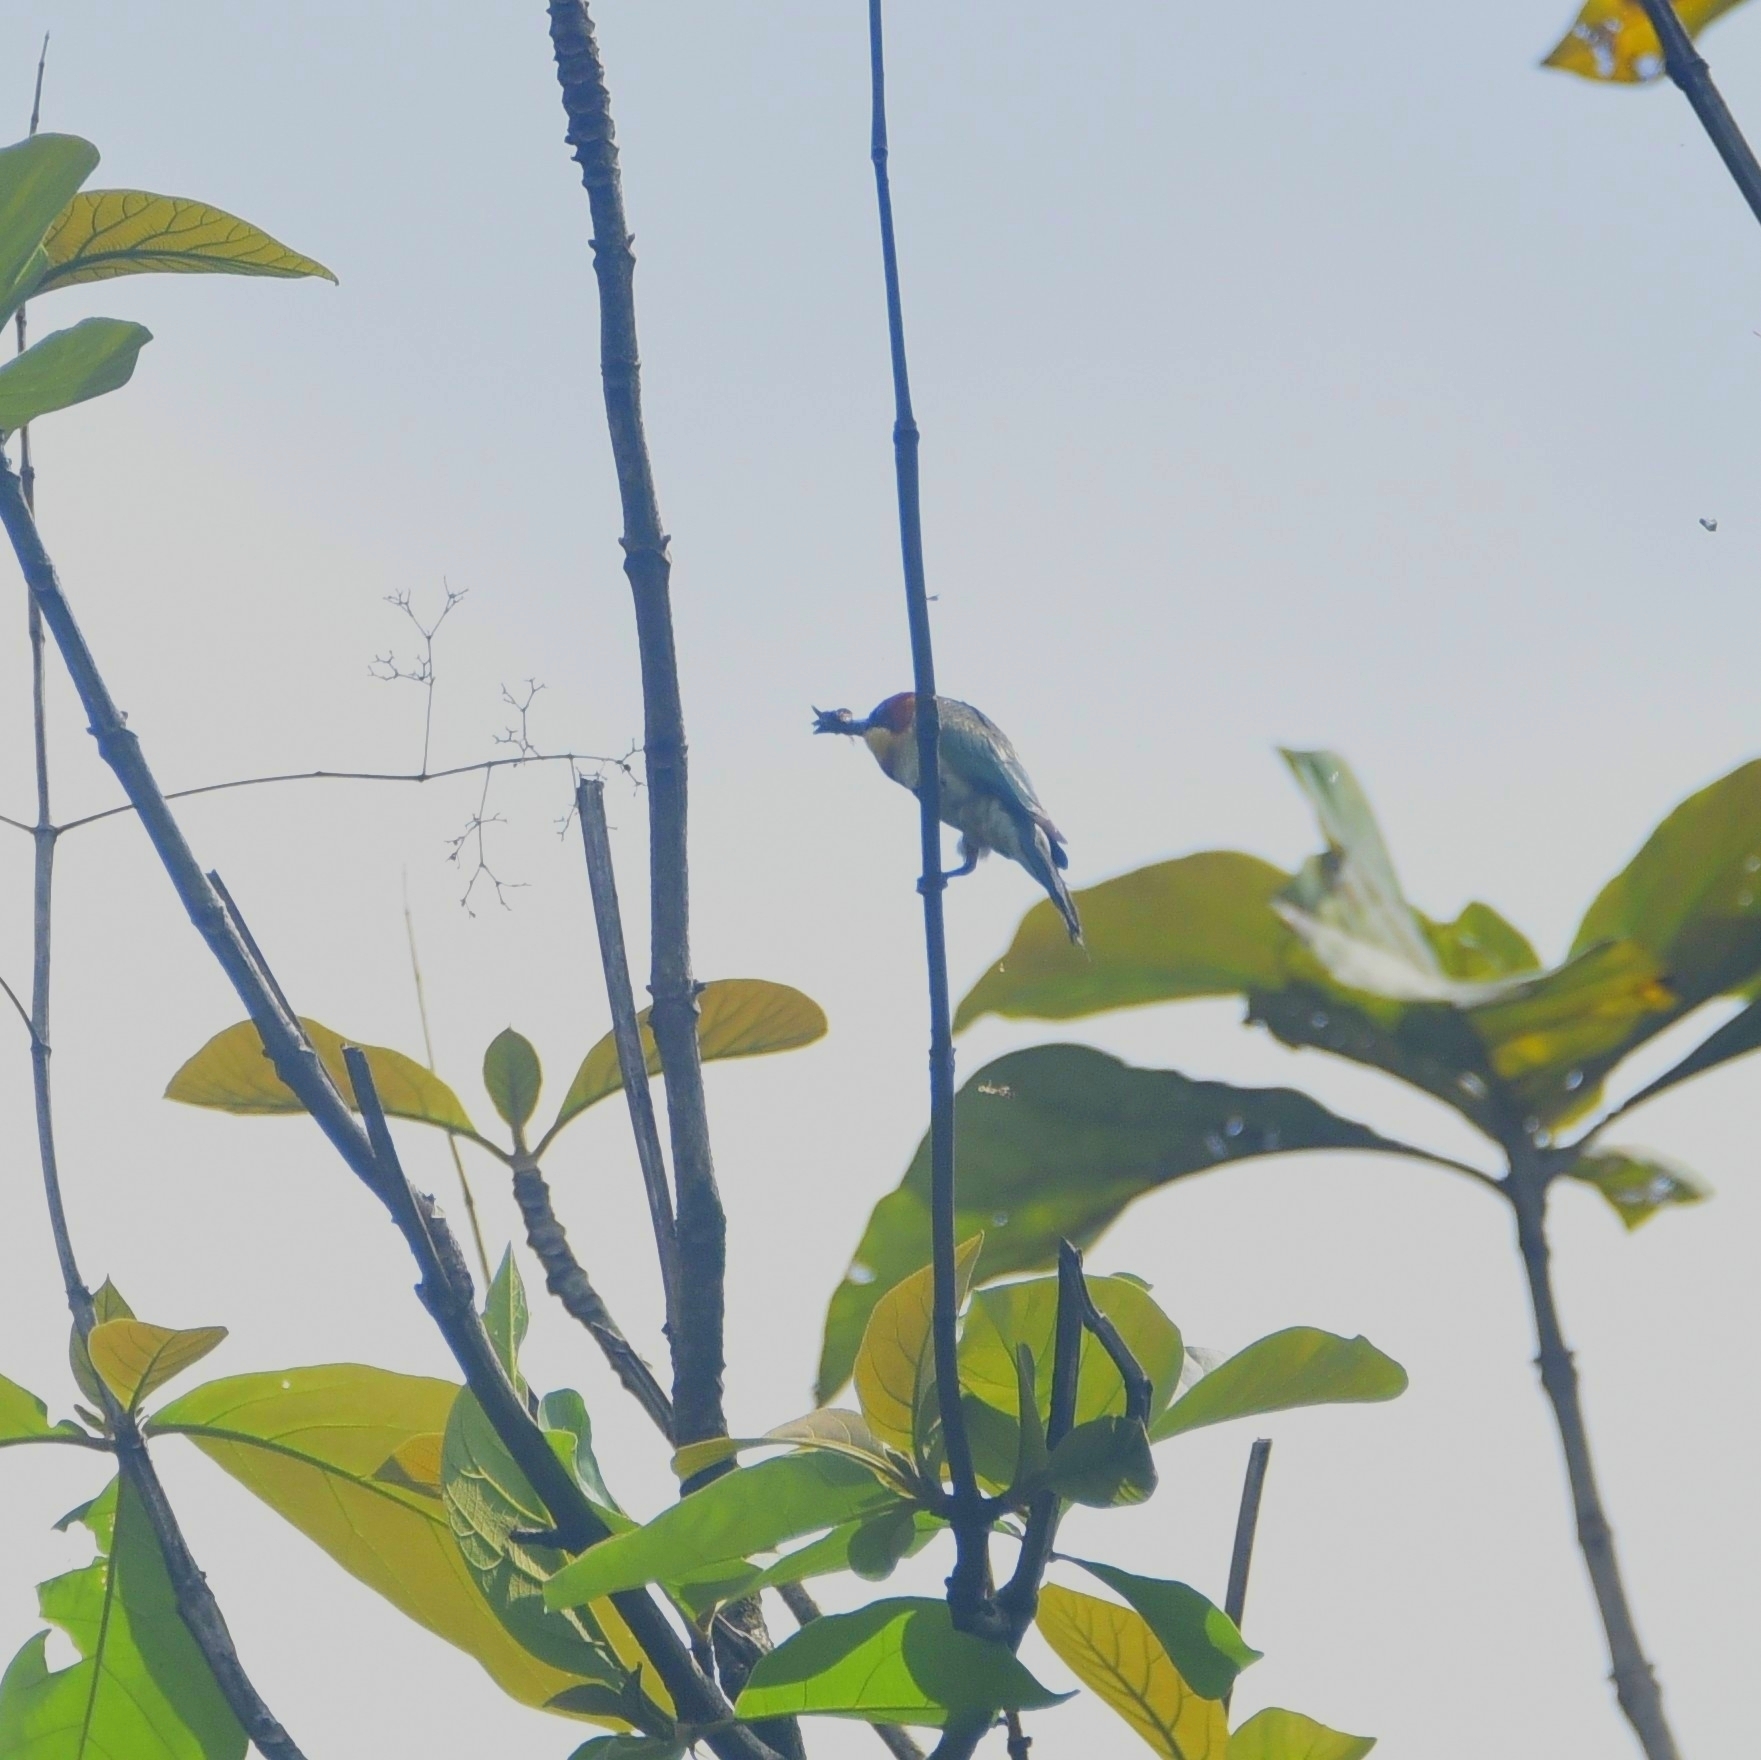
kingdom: Animalia
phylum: Chordata
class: Aves
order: Coraciiformes
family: Meropidae
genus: Merops
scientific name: Merops leschenaulti
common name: Chestnut-headed bee-eater
